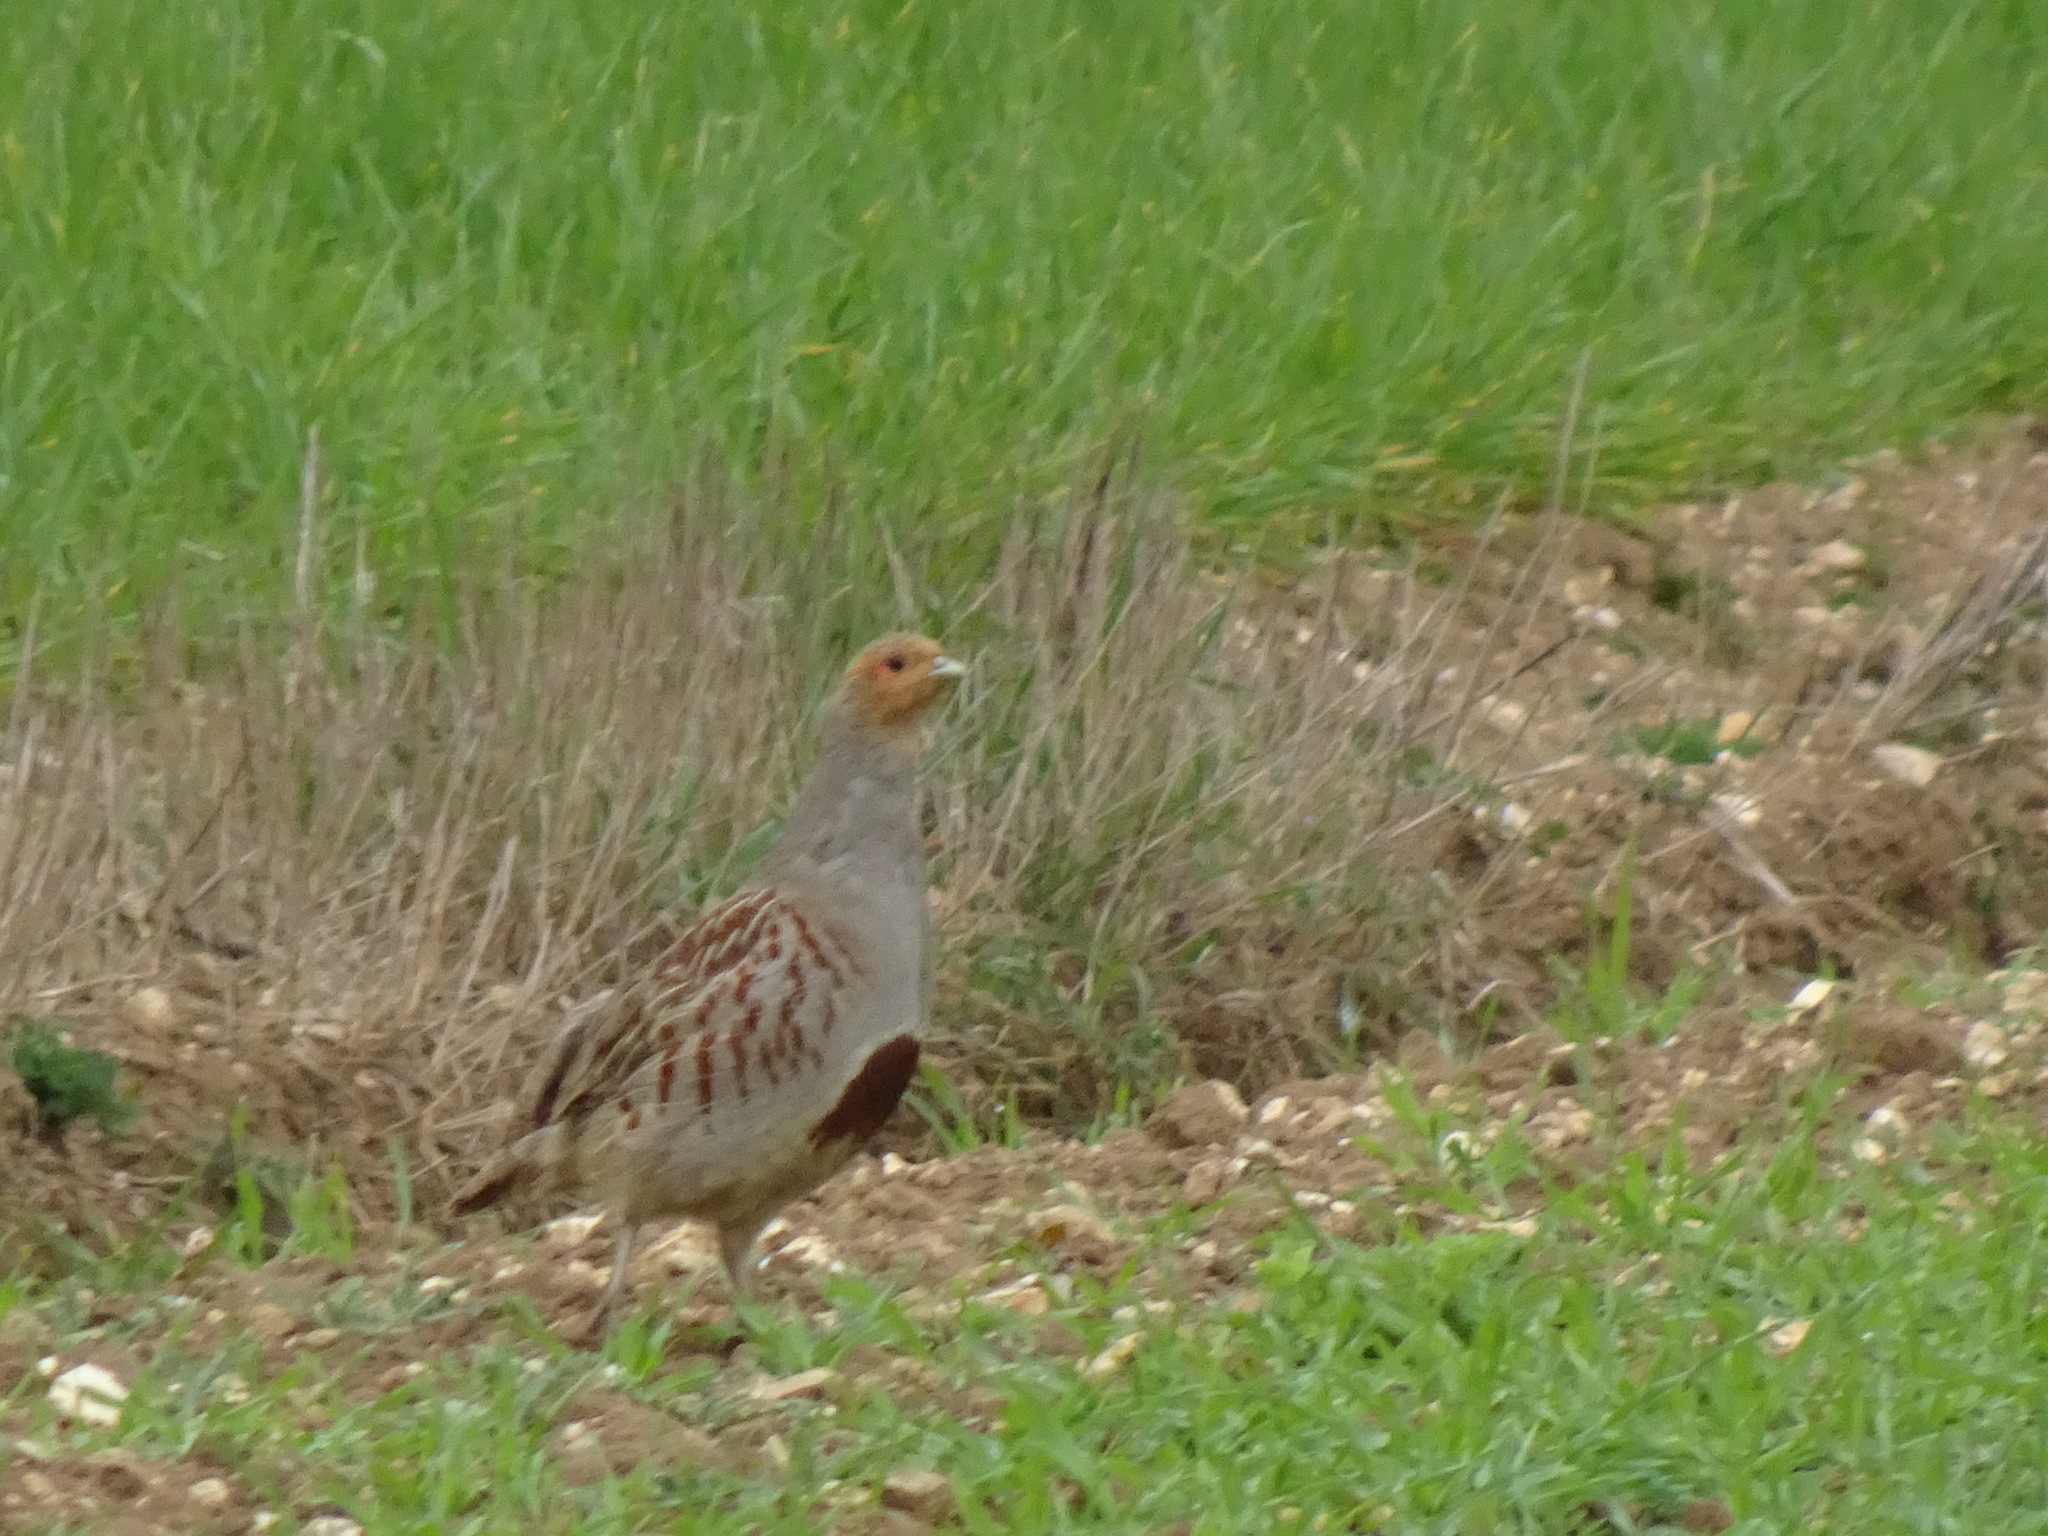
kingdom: Animalia
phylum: Chordata
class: Aves
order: Galliformes
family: Phasianidae
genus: Perdix
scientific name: Perdix perdix
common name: Grey partridge
